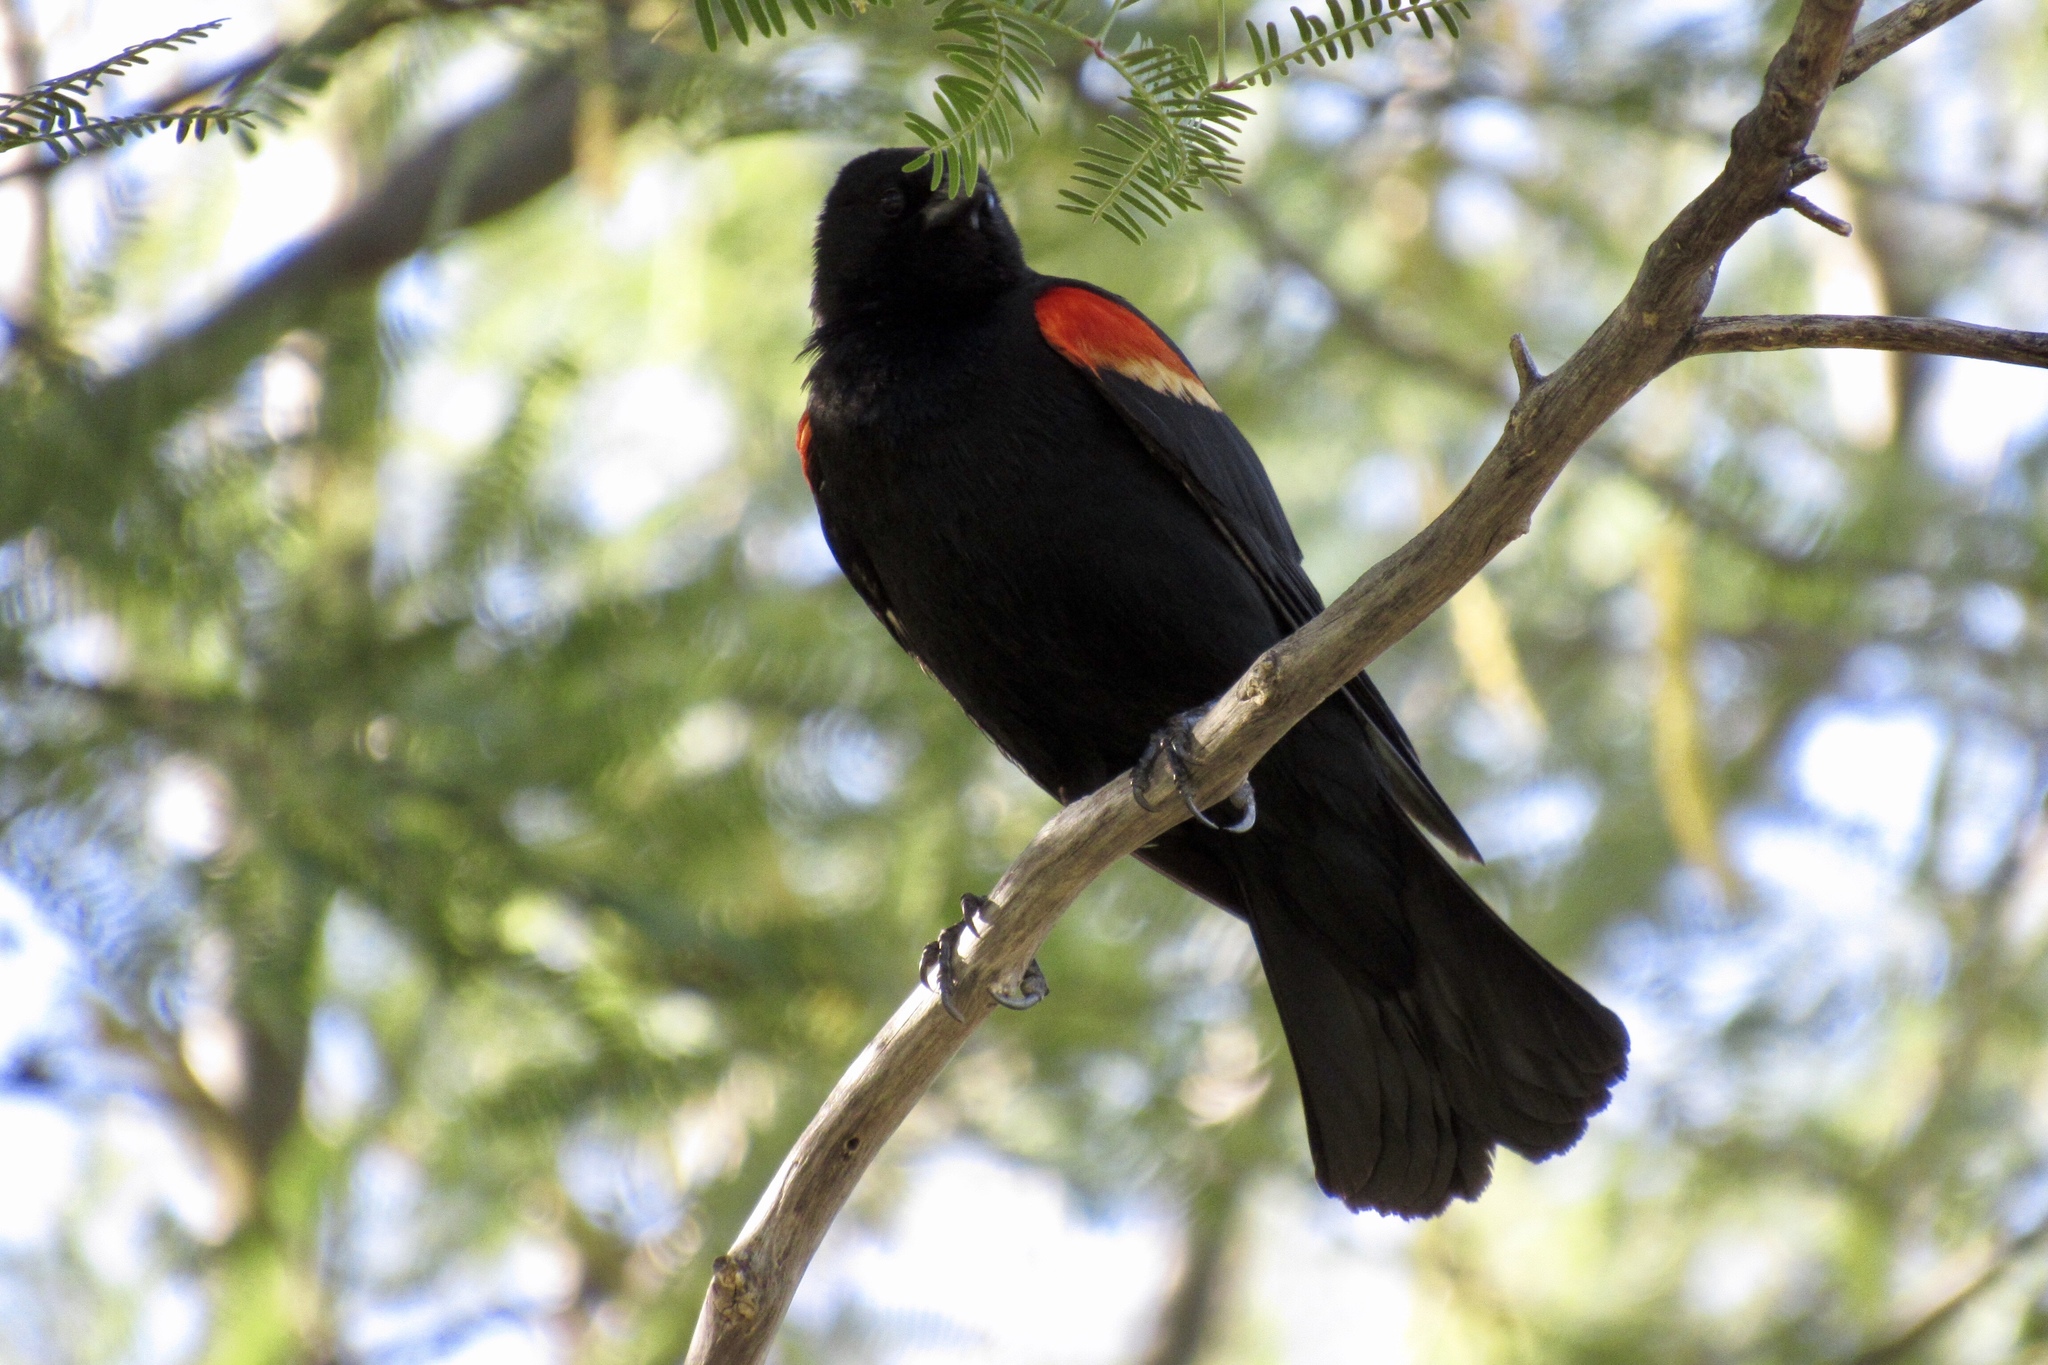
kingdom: Animalia
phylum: Chordata
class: Aves
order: Passeriformes
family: Icteridae
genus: Agelaius
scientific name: Agelaius phoeniceus
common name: Red-winged blackbird
